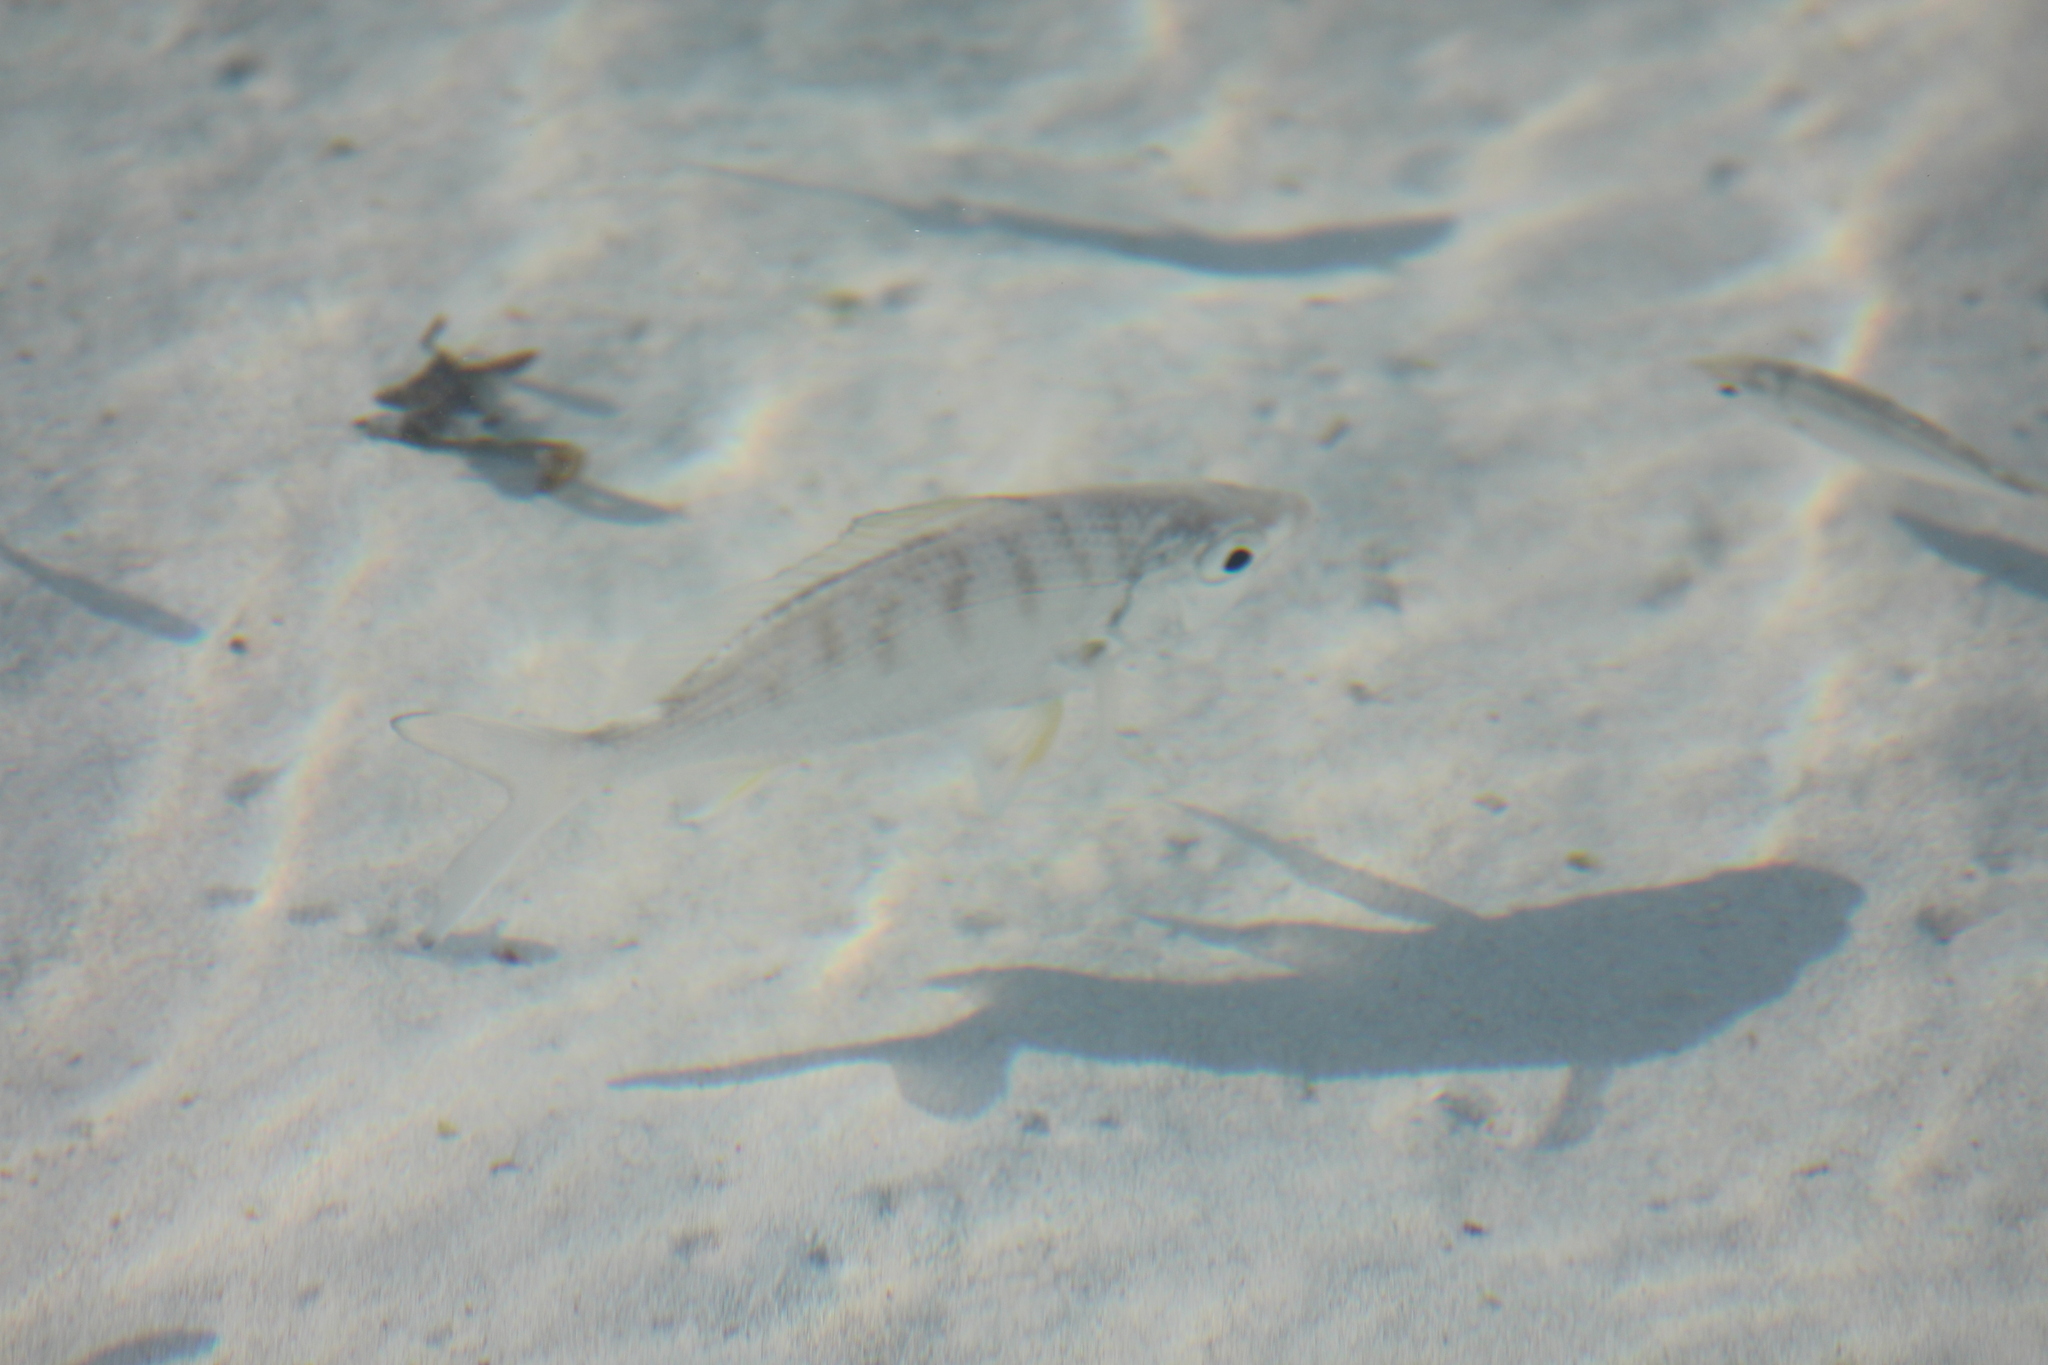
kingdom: Animalia
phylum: Chordata
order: Perciformes
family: Gerreidae
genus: Gerres
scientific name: Gerres simillimus
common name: Yellow fin mojarra
